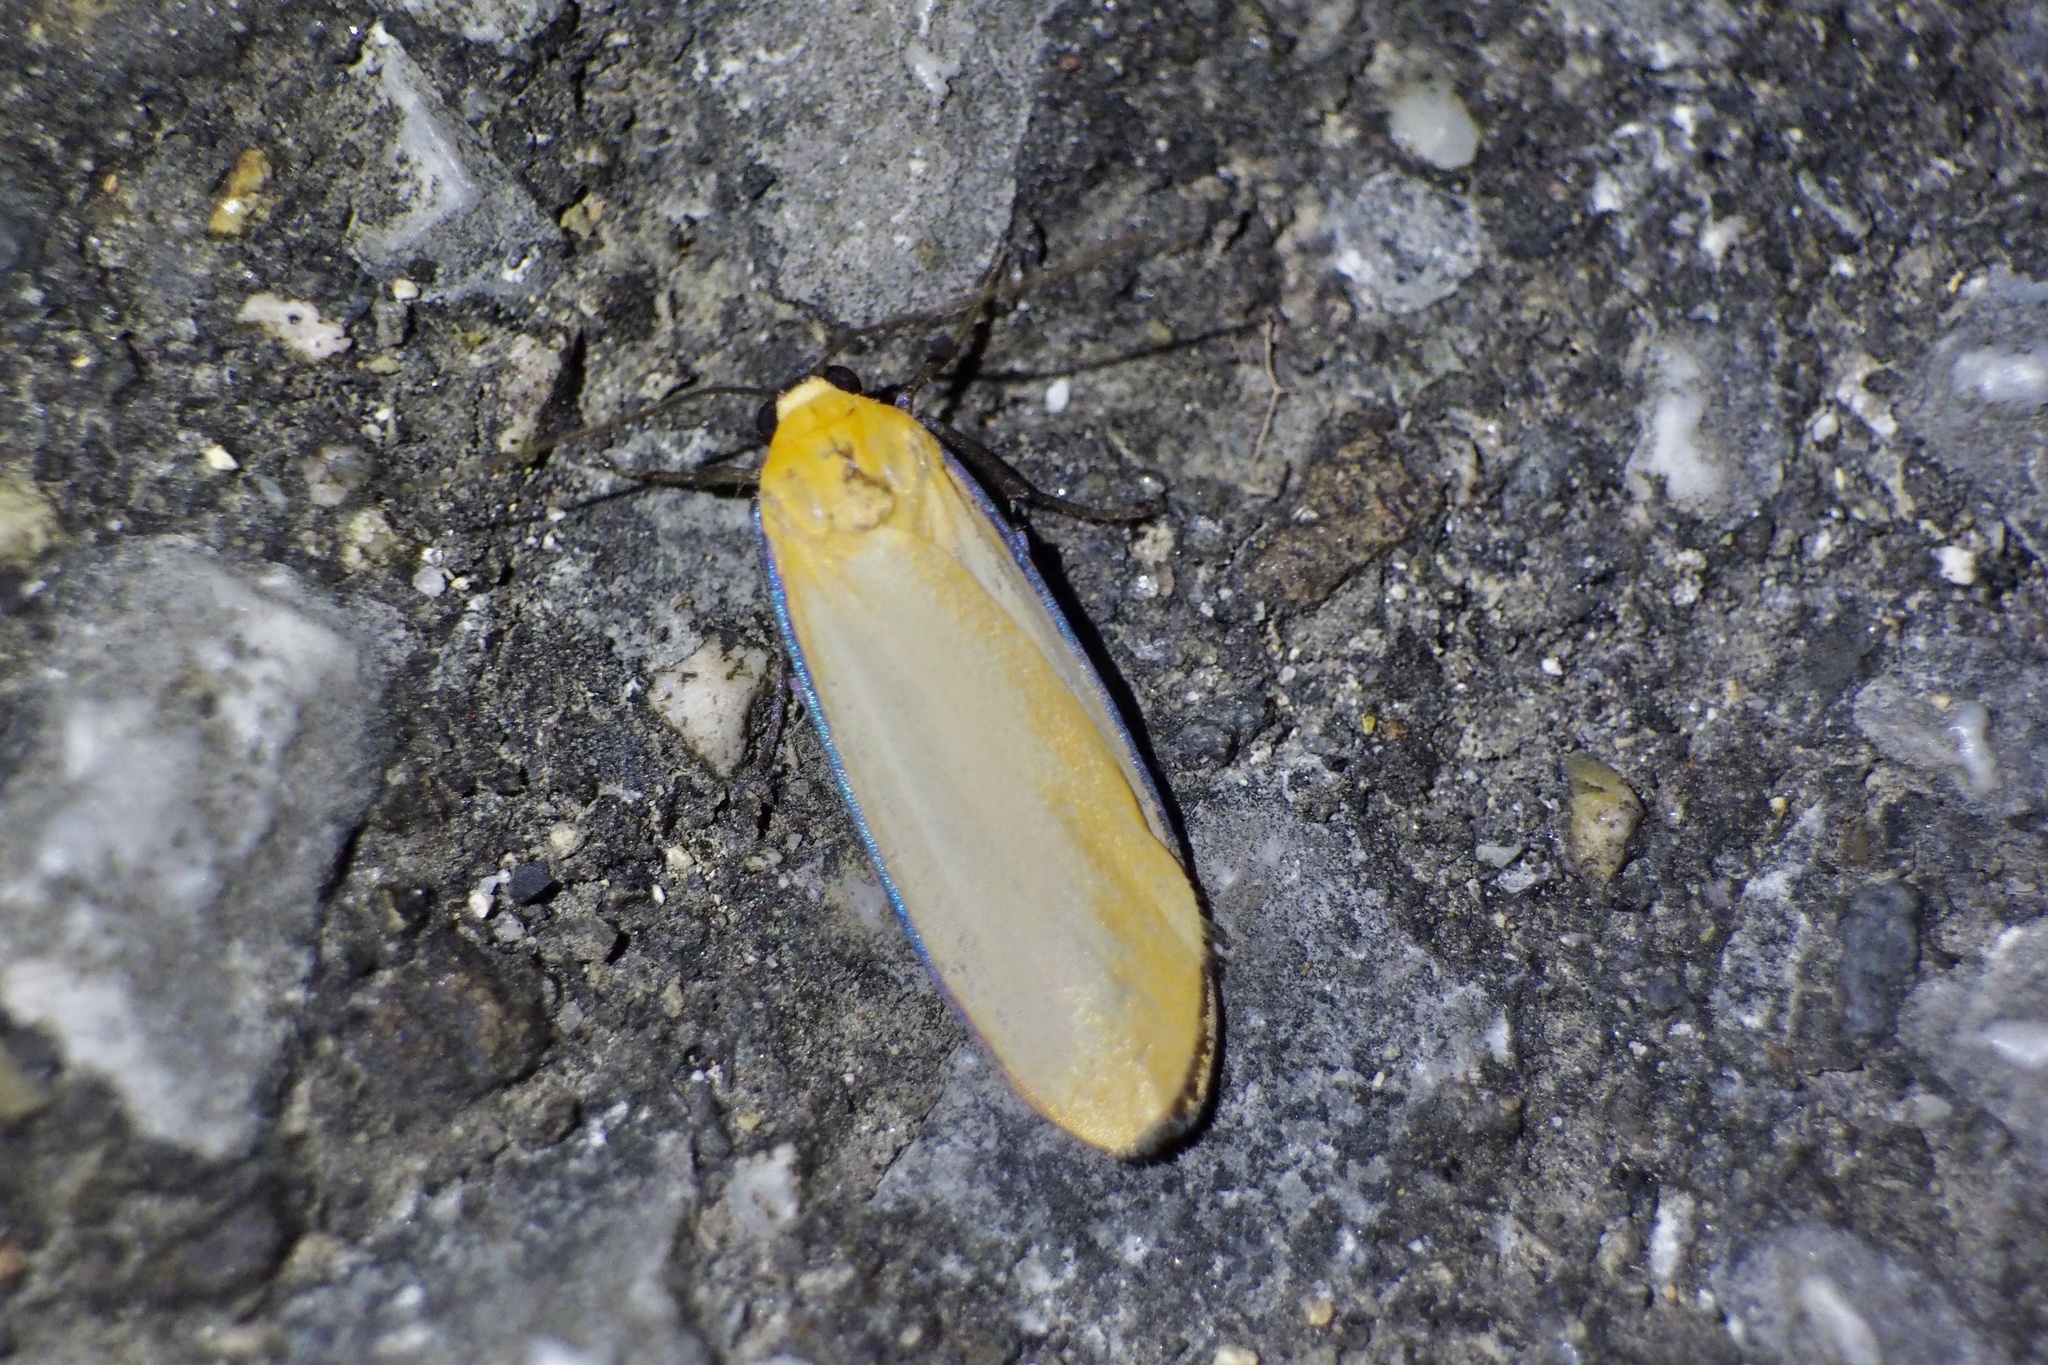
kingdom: Animalia
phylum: Arthropoda
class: Insecta
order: Lepidoptera
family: Erebidae
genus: Conilepia
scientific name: Conilepia nigricosta
